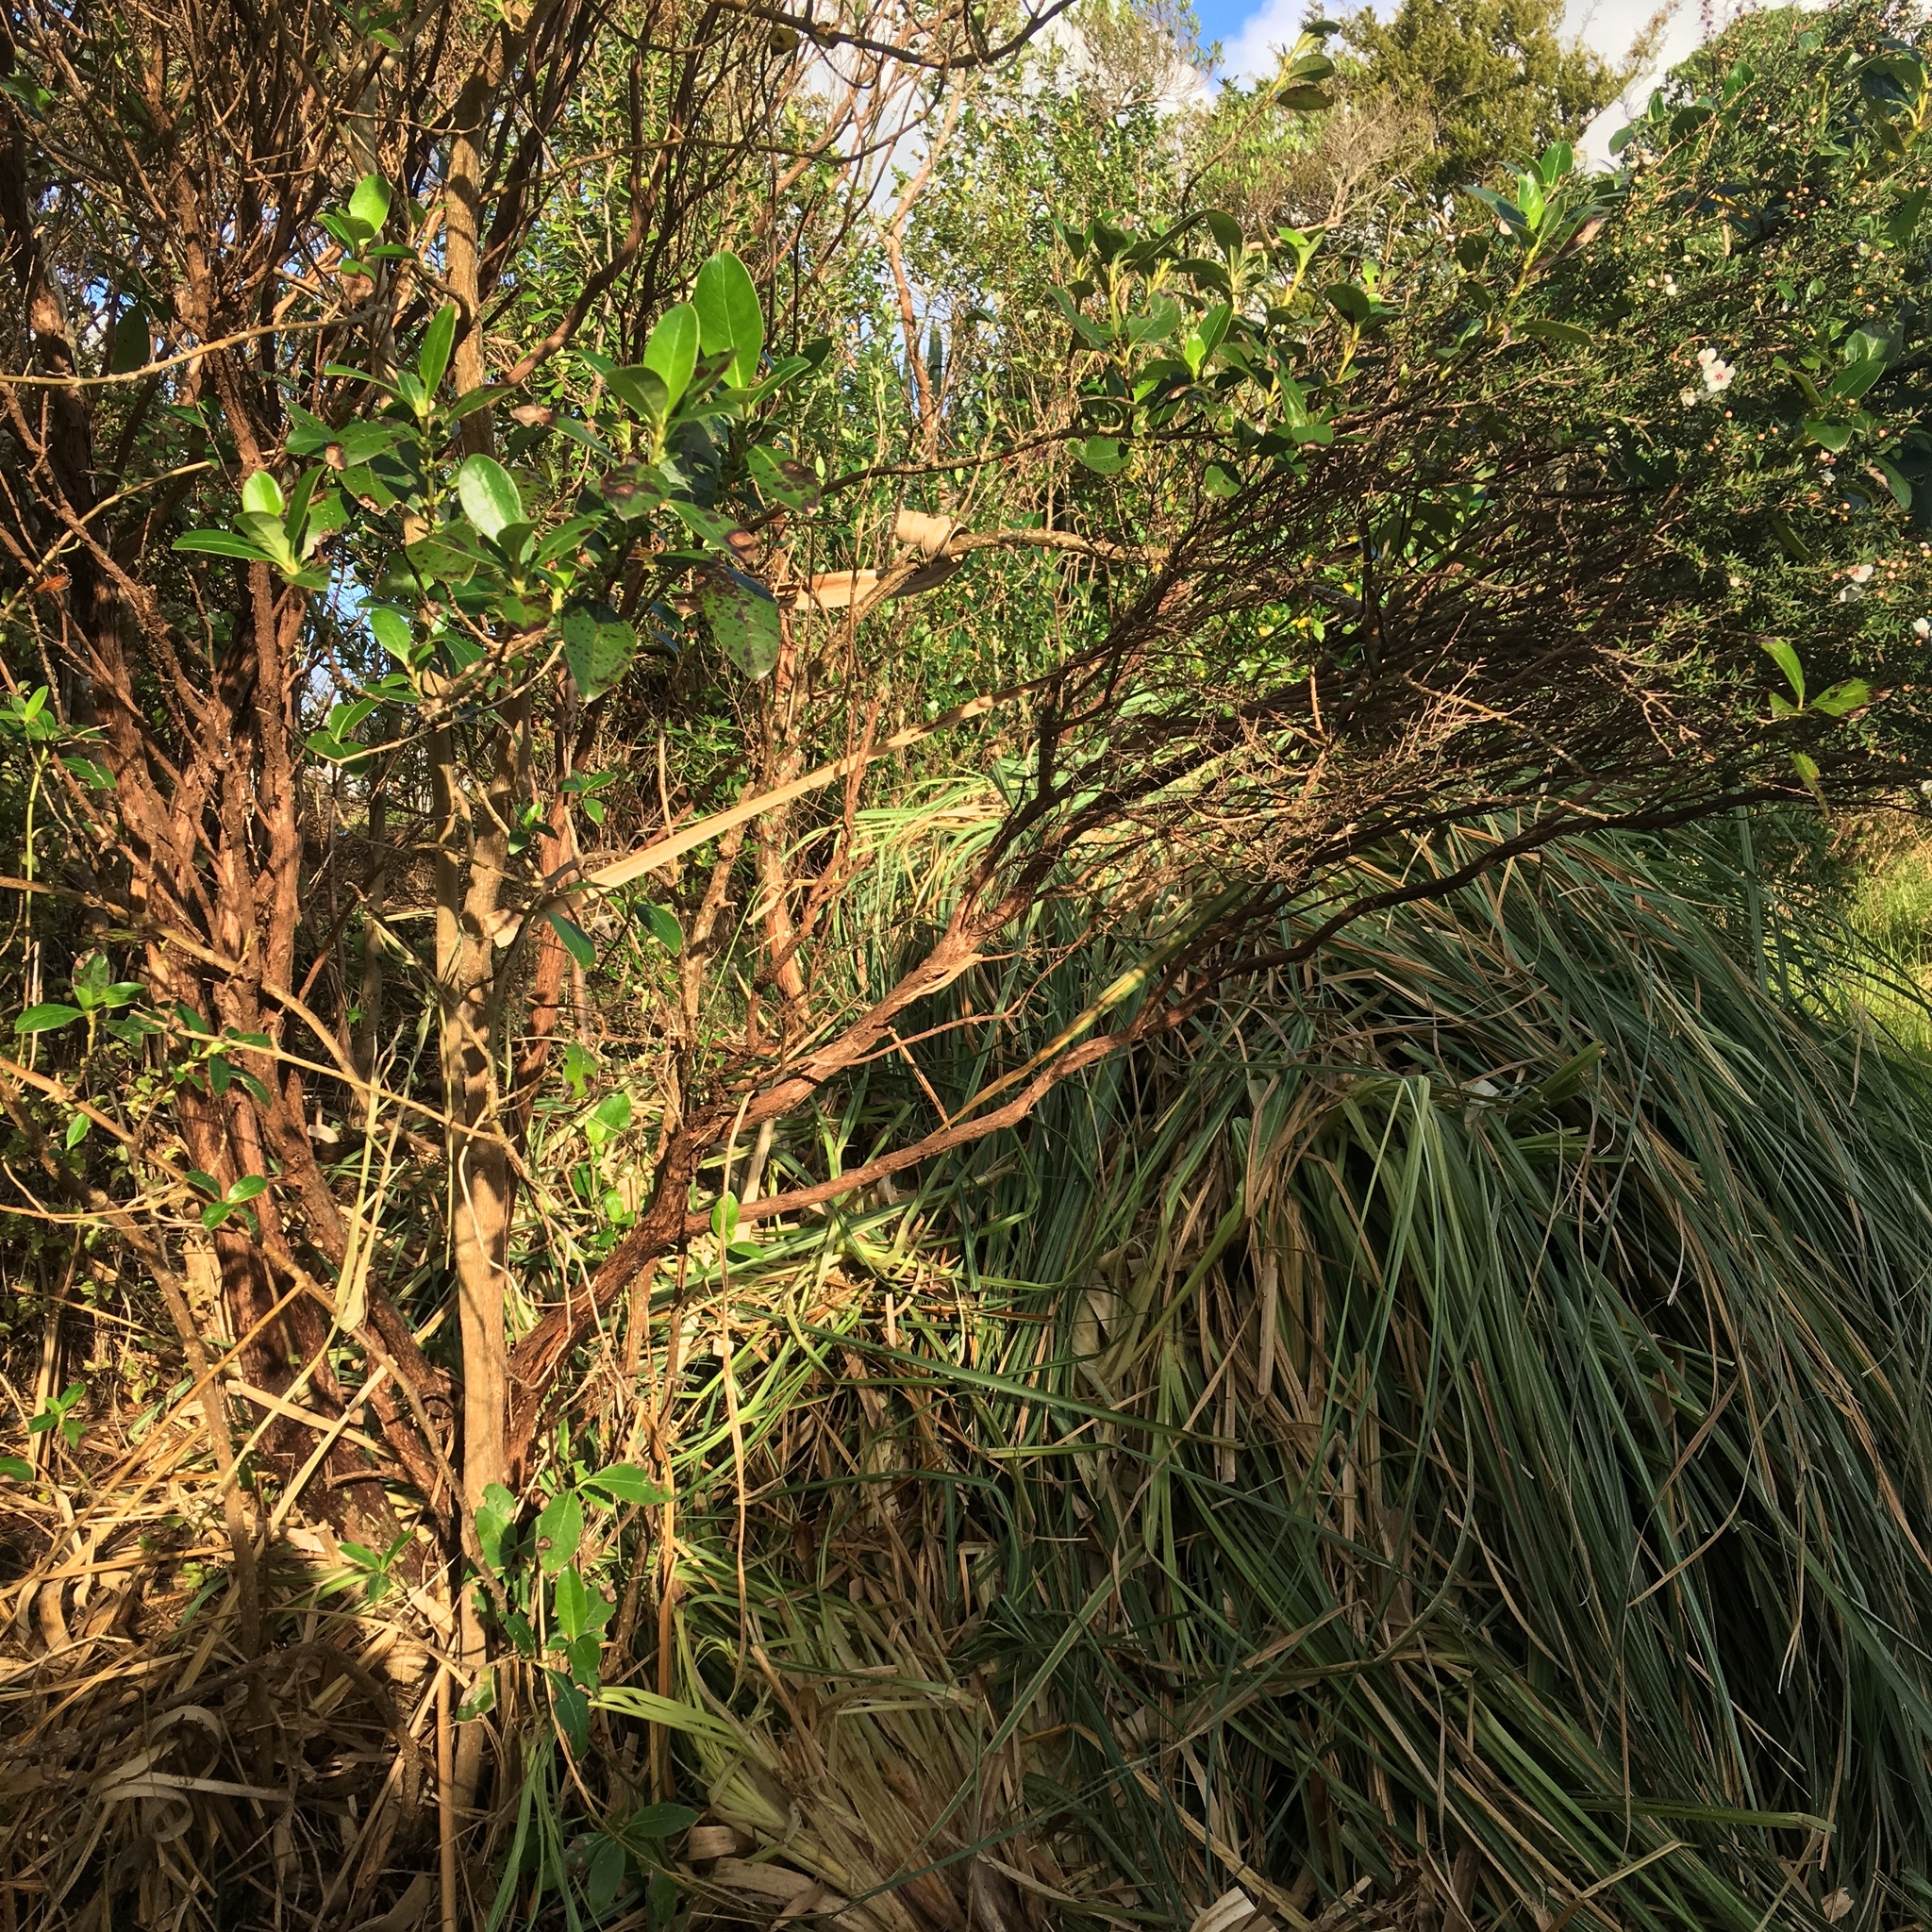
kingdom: Plantae
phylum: Tracheophyta
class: Magnoliopsida
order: Myrtales
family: Myrtaceae
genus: Leptospermum
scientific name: Leptospermum scoparium
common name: Broom tea-tree
